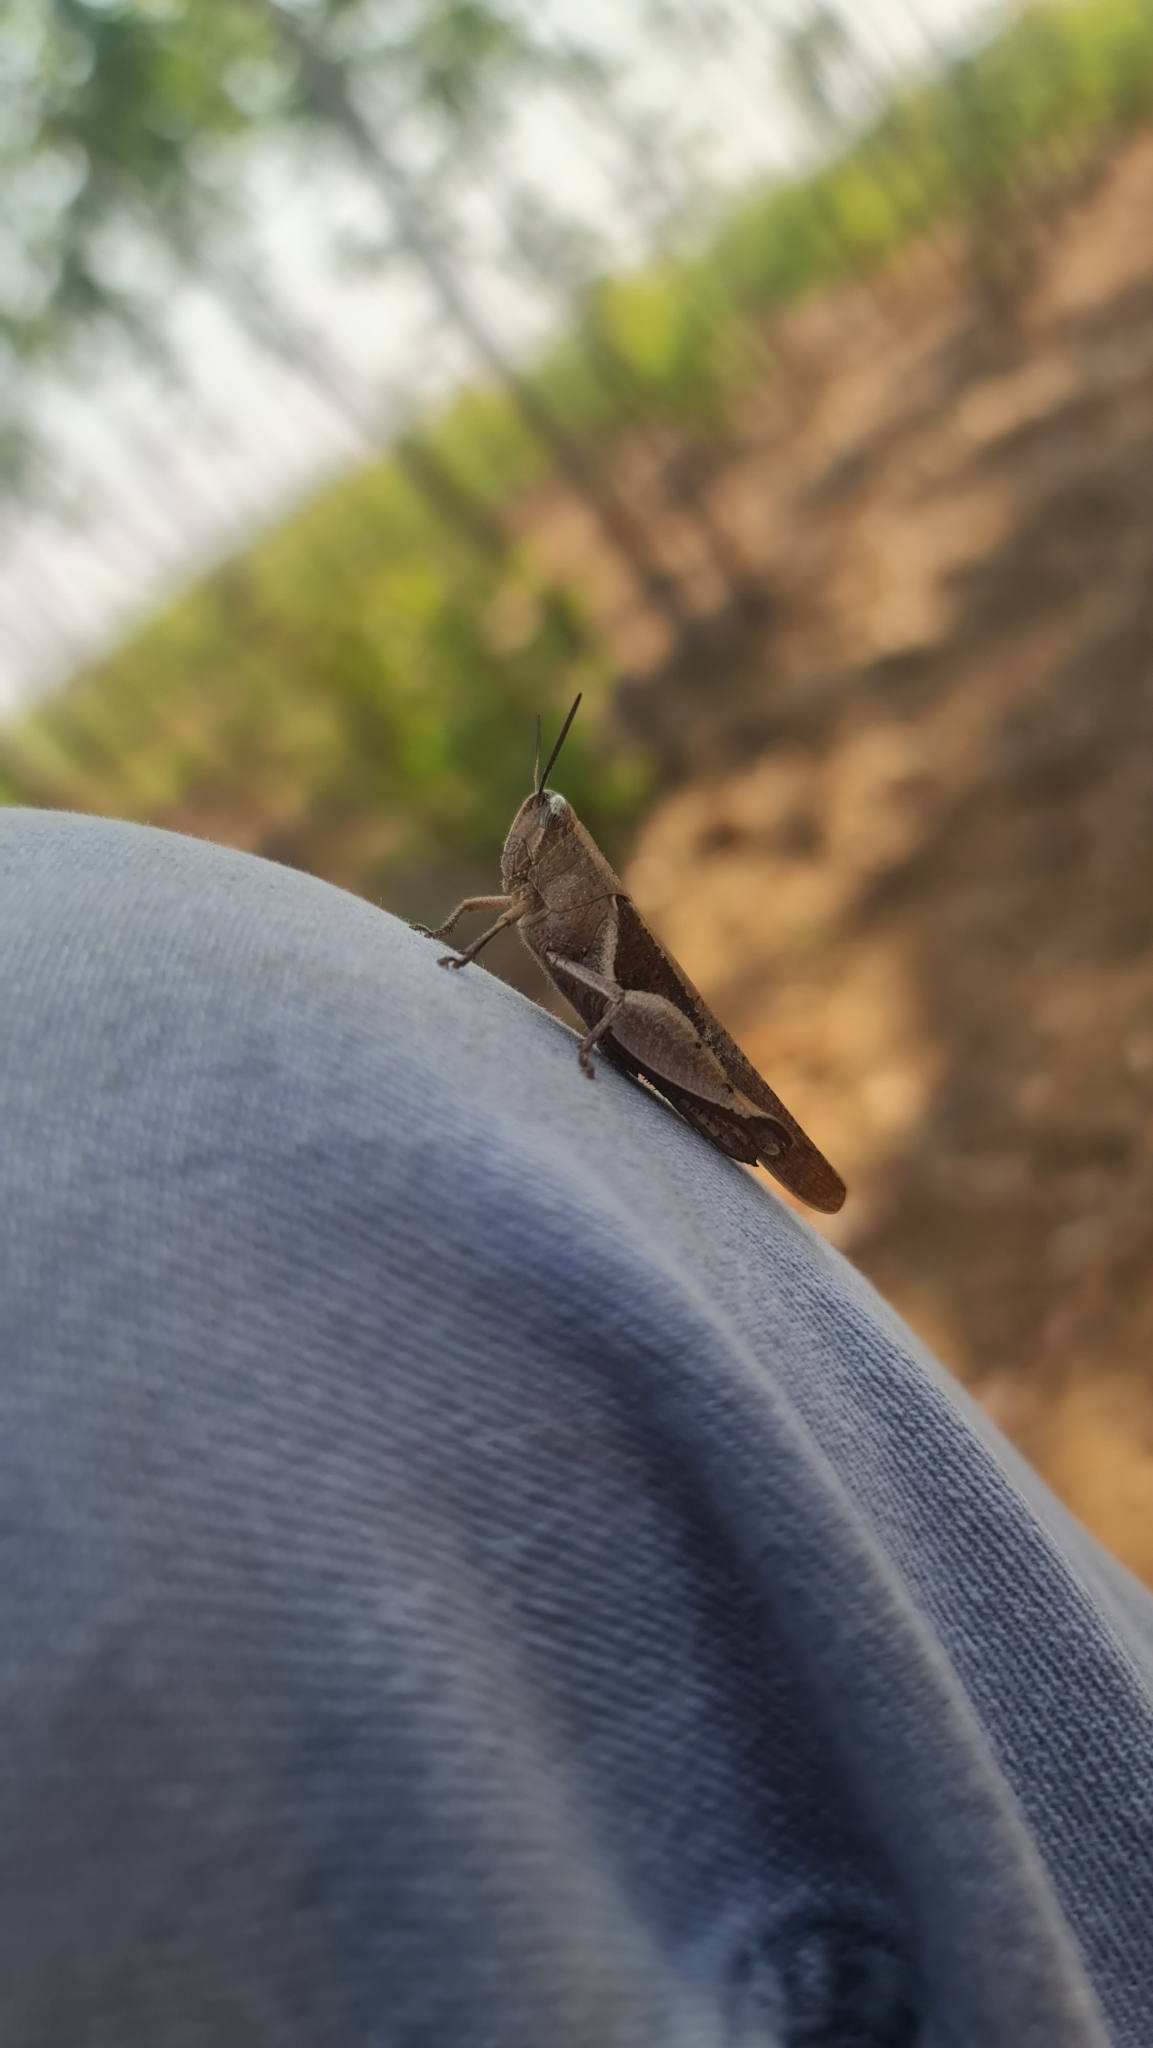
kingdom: Animalia
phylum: Arthropoda
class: Insecta
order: Orthoptera
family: Acrididae
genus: Diabolocatantops
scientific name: Diabolocatantops innotabilis
